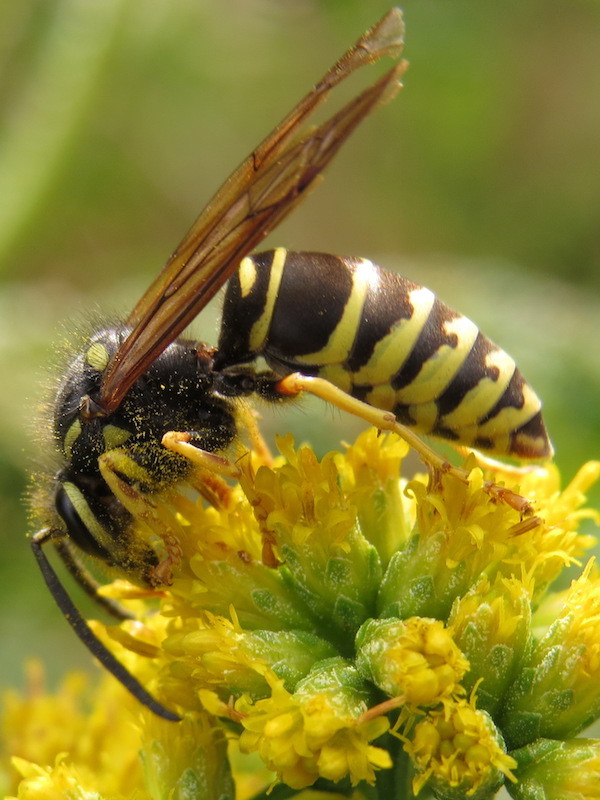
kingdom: Animalia
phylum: Arthropoda
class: Insecta
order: Hymenoptera
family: Vespidae
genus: Vespula
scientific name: Vespula vidua
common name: Widow yellowjacket
